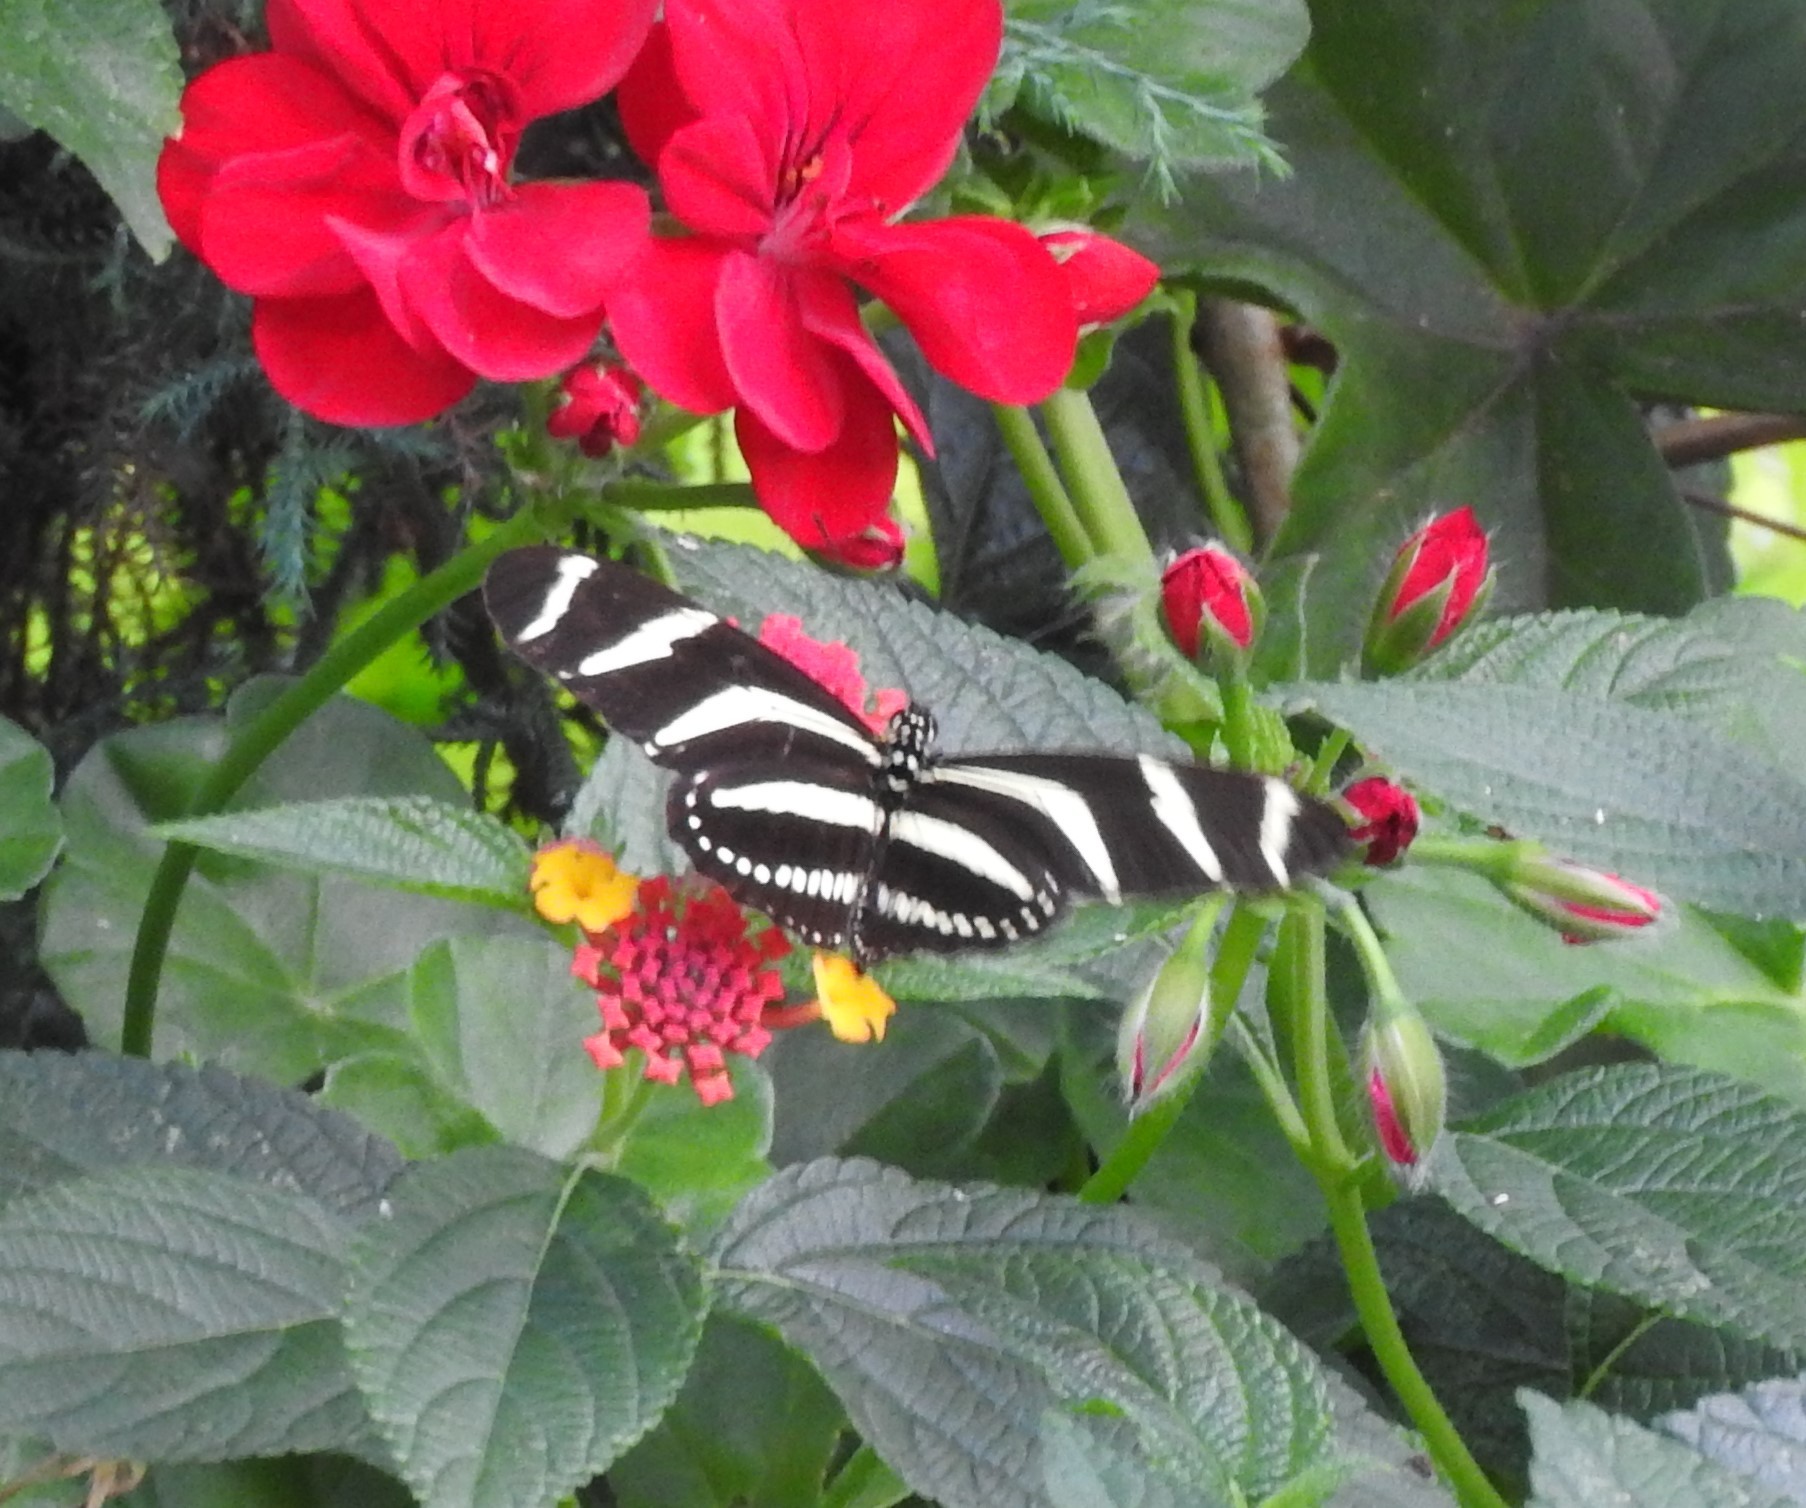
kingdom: Animalia
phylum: Arthropoda
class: Insecta
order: Lepidoptera
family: Nymphalidae
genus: Heliconius
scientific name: Heliconius charithonia
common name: Zebra long wing
